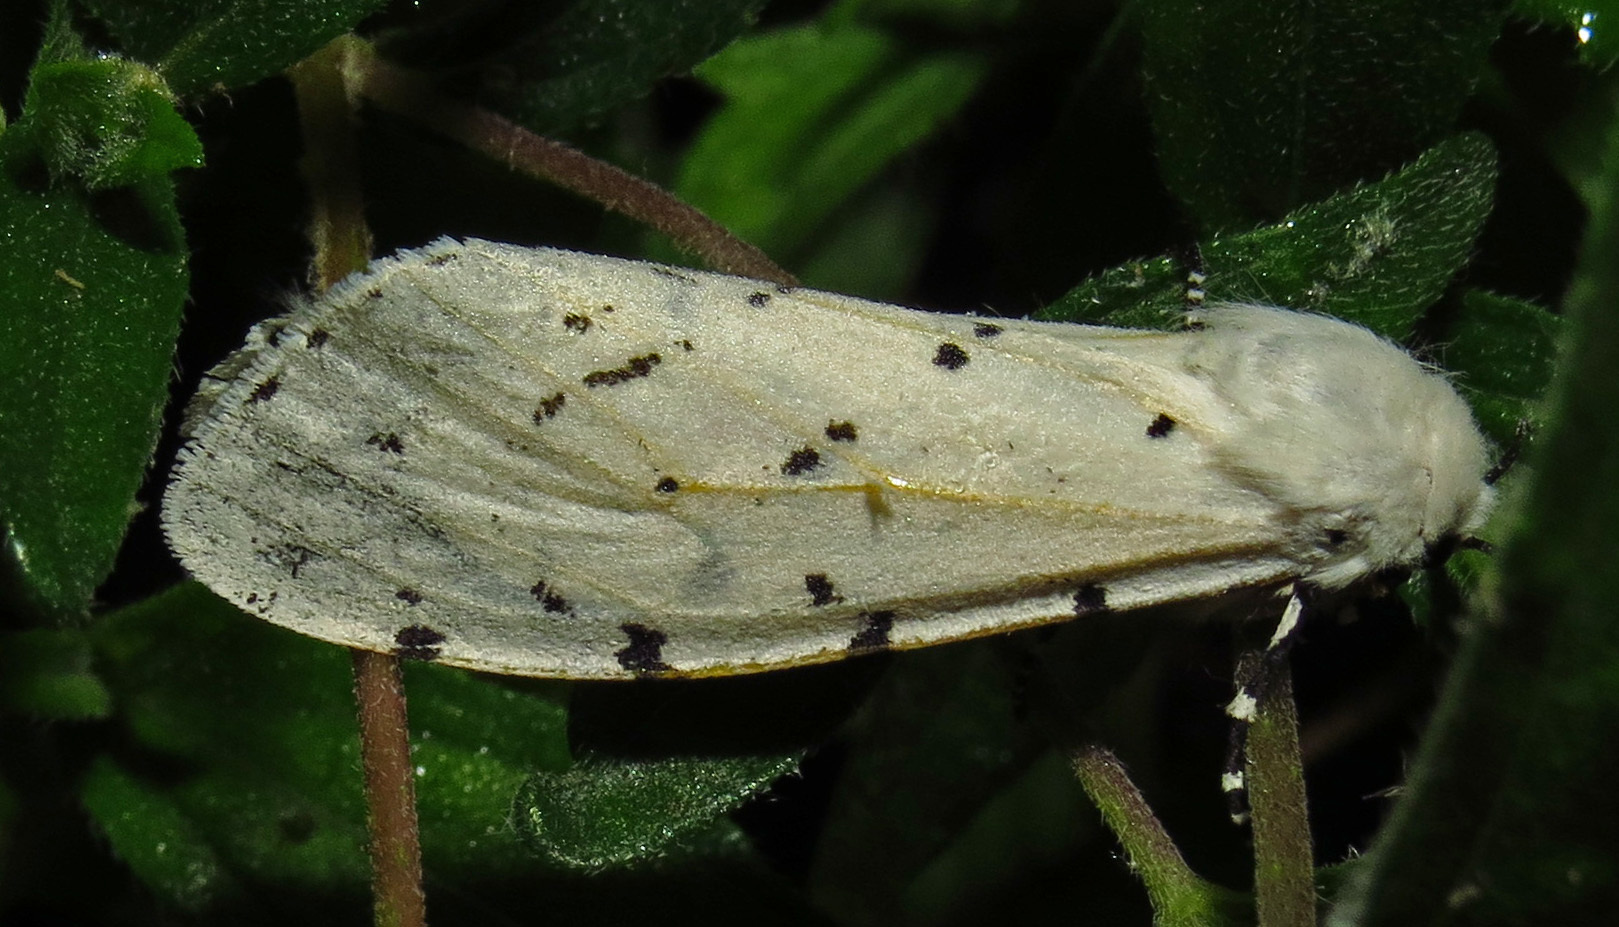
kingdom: Animalia
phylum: Arthropoda
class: Insecta
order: Lepidoptera
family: Erebidae
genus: Estigmene
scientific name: Estigmene acrea
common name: Salt marsh moth
